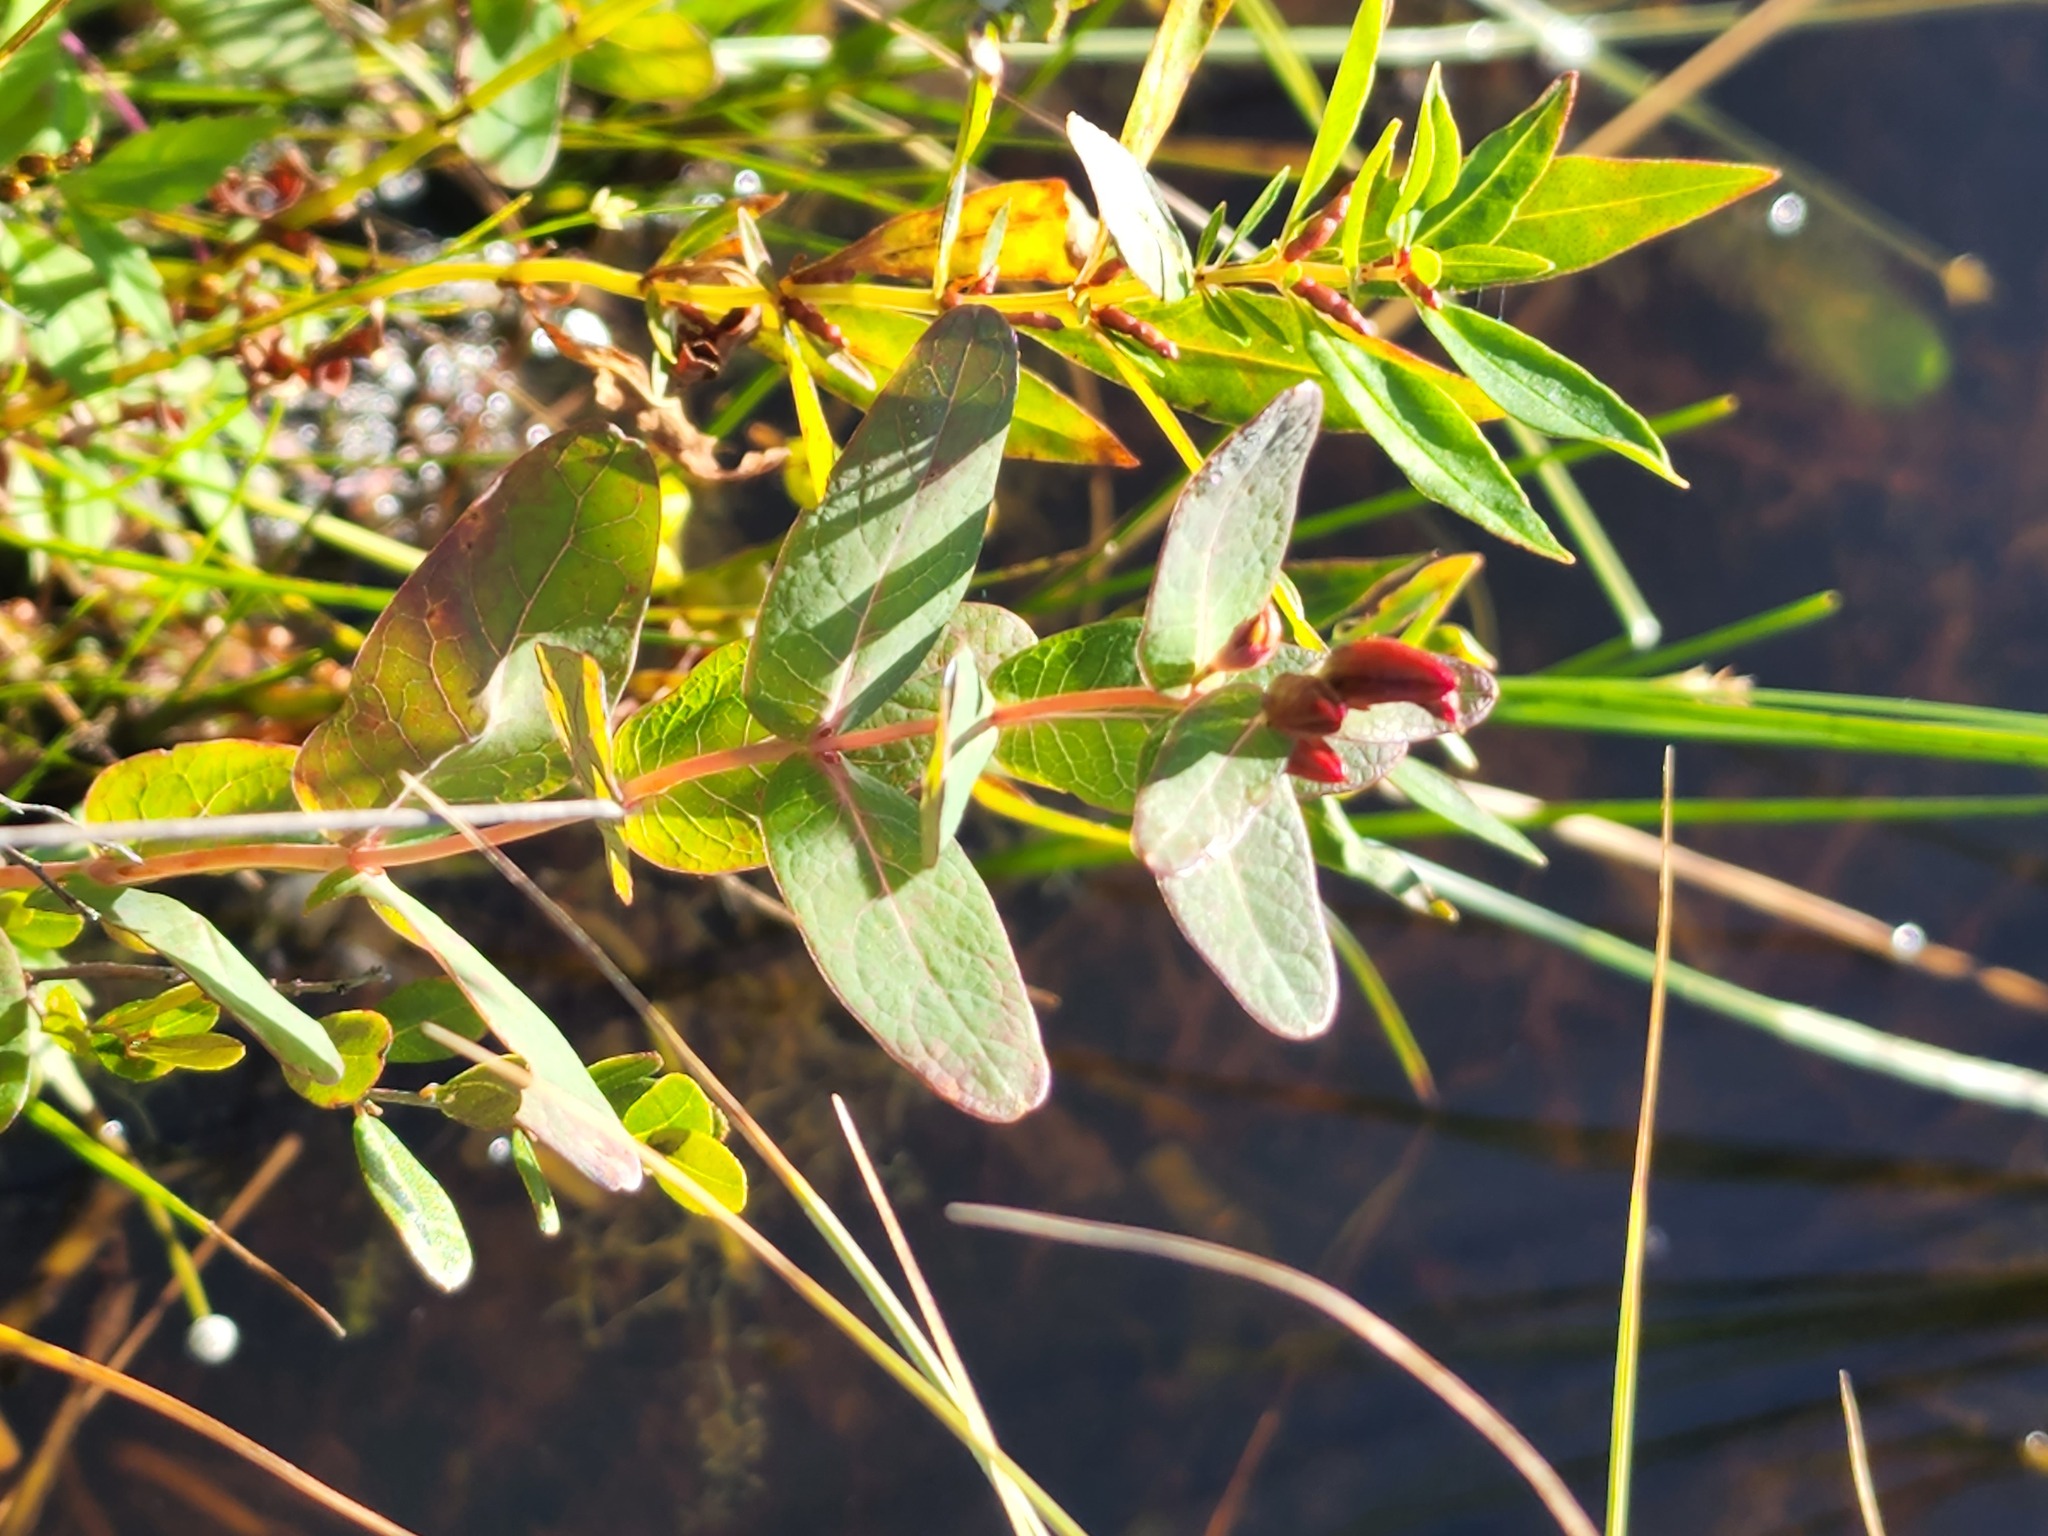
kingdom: Plantae
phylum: Tracheophyta
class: Magnoliopsida
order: Malpighiales
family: Hypericaceae
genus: Triadenum
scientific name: Triadenum fraseri
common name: Fraser's marsh st. johnswort
